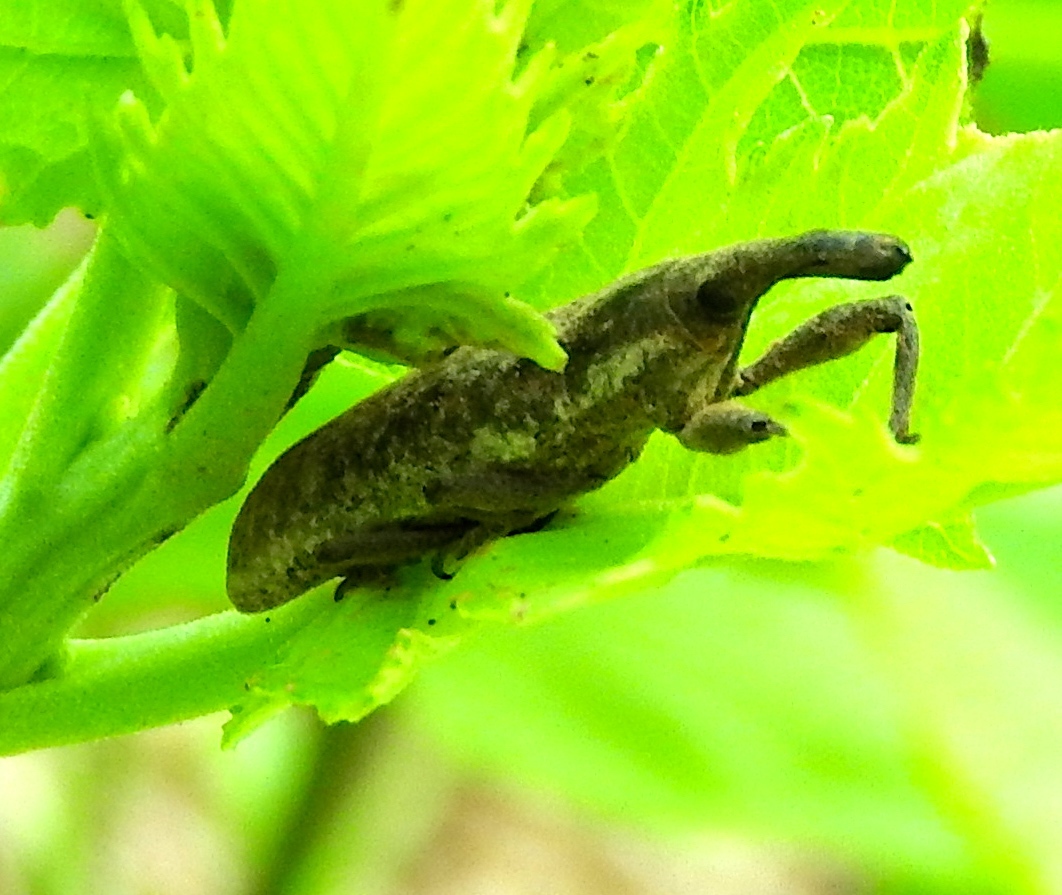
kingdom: Animalia
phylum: Arthropoda
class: Insecta
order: Coleoptera
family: Curculionidae
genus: Lixus
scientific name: Lixus
